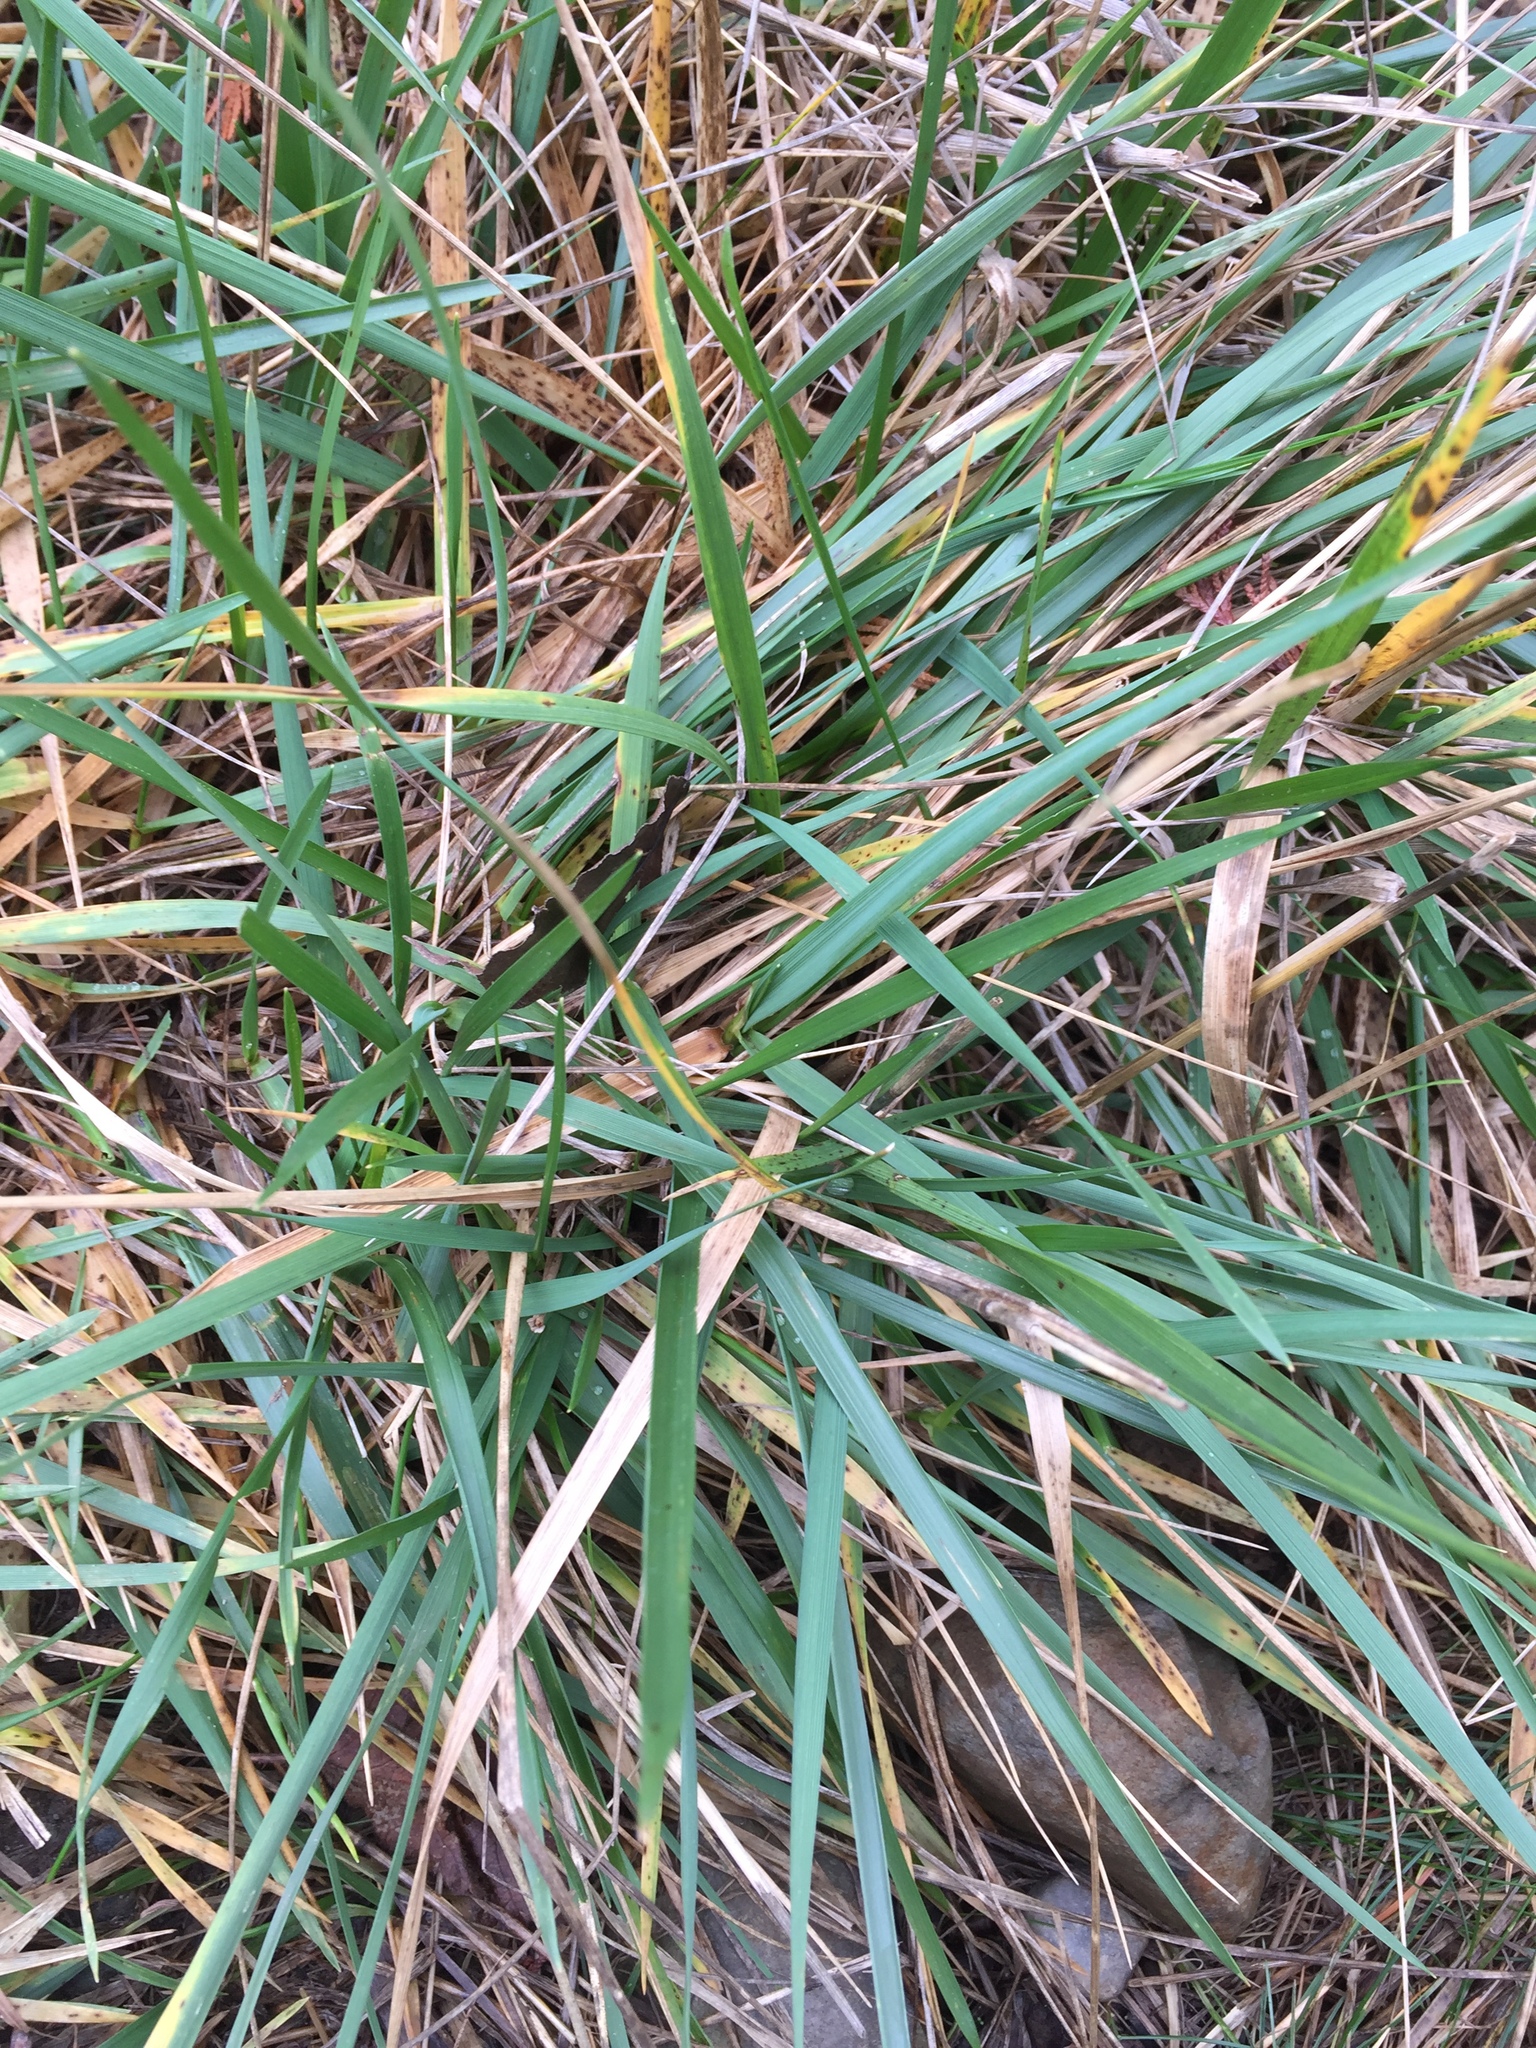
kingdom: Plantae
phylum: Tracheophyta
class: Liliopsida
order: Poales
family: Poaceae
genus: Leymus
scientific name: Leymus mollis
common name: American dune grass
